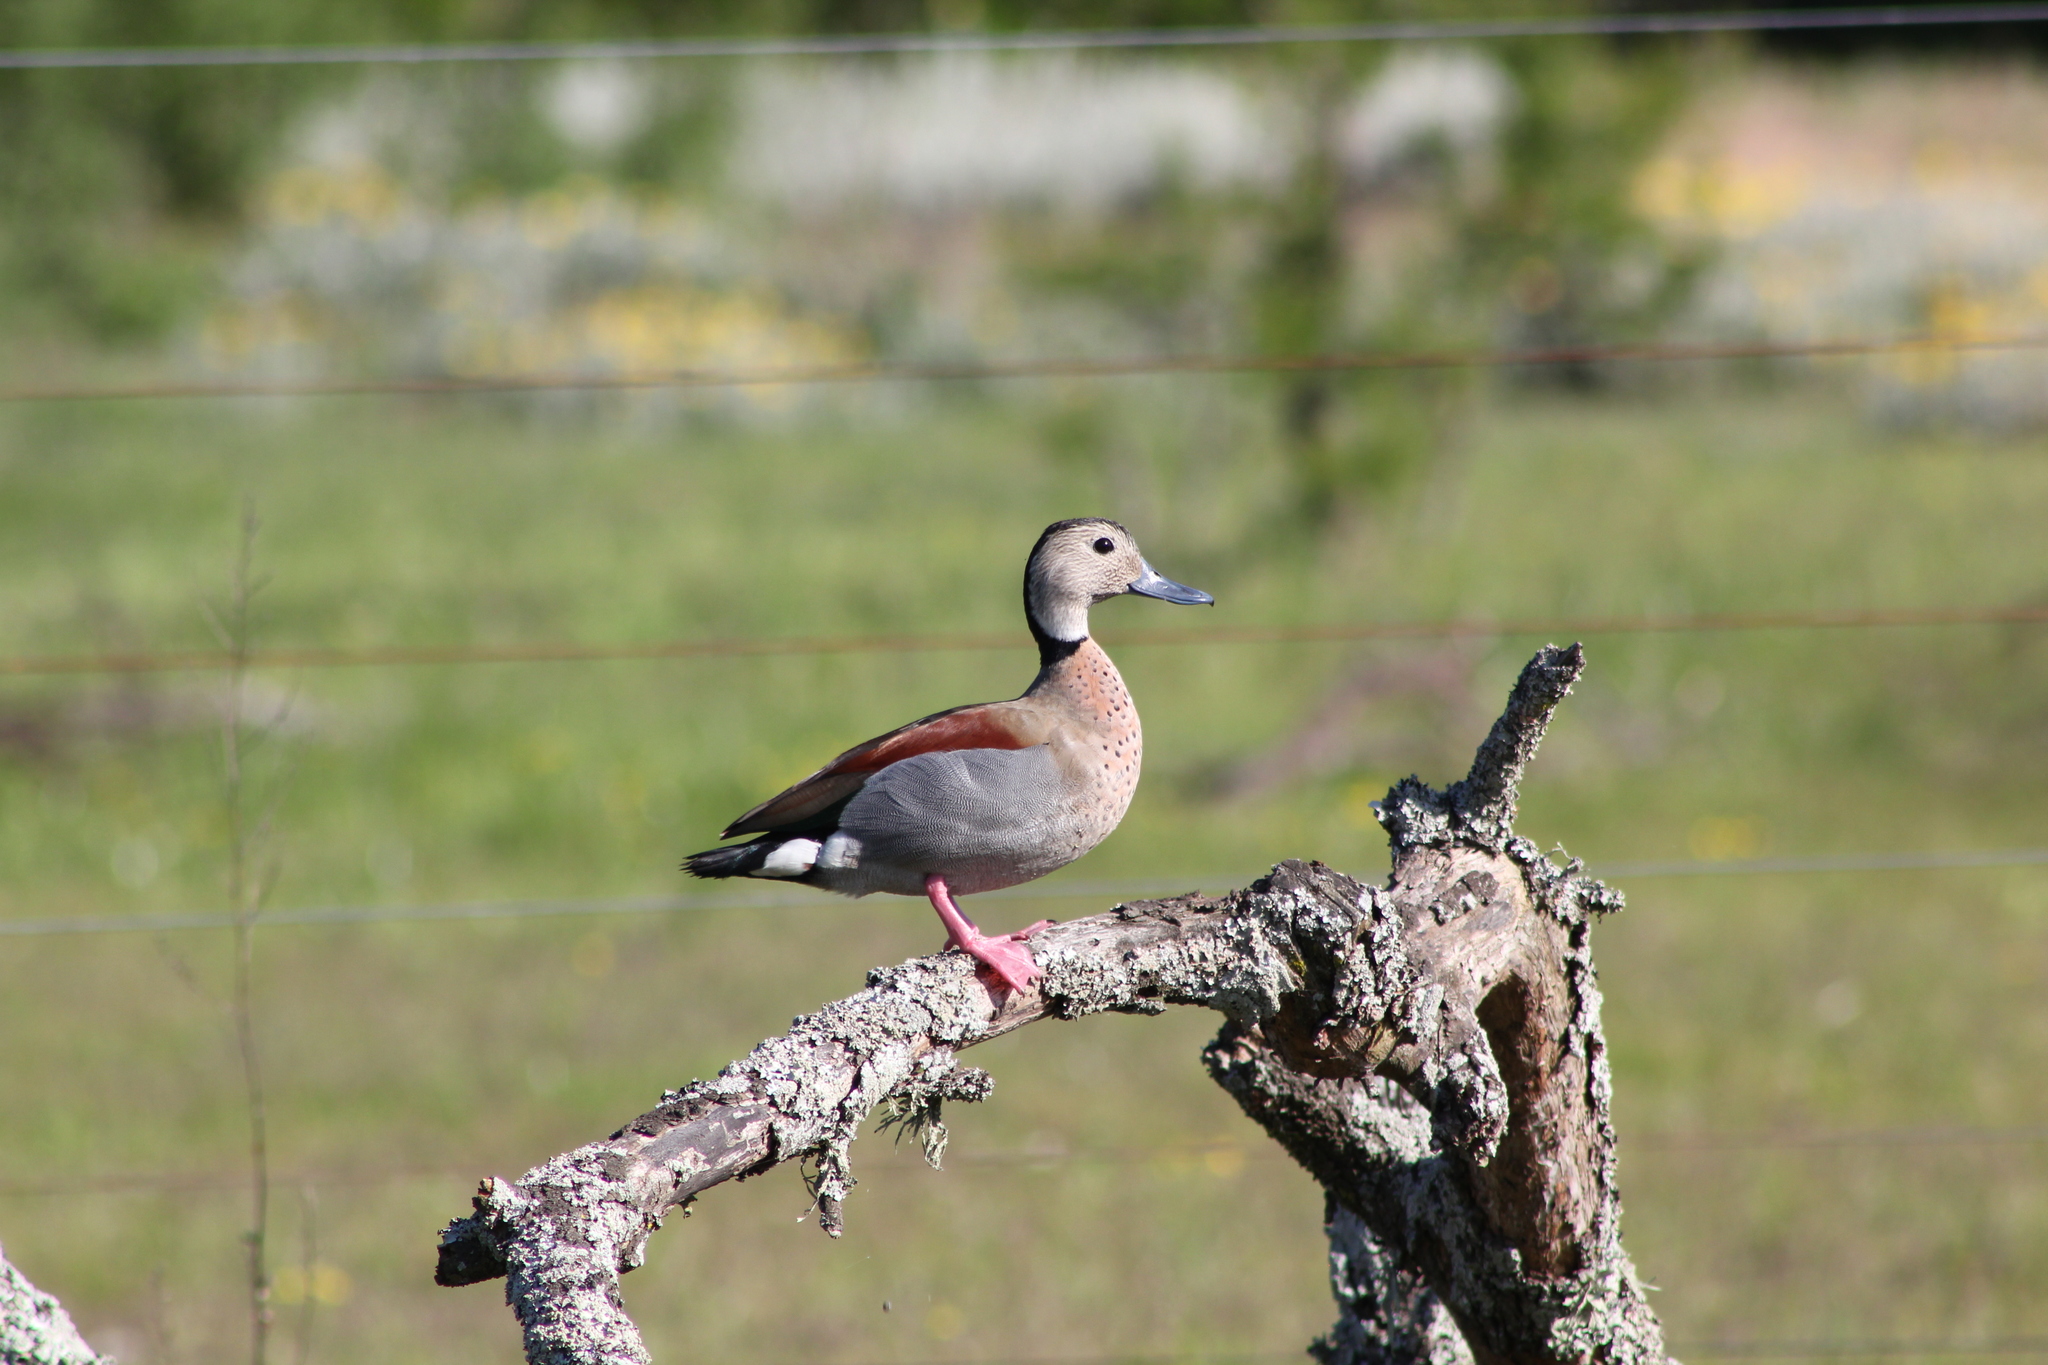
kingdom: Animalia
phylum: Chordata
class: Aves
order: Anseriformes
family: Anatidae
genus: Callonetta
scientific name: Callonetta leucophrys
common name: Ringed teal
